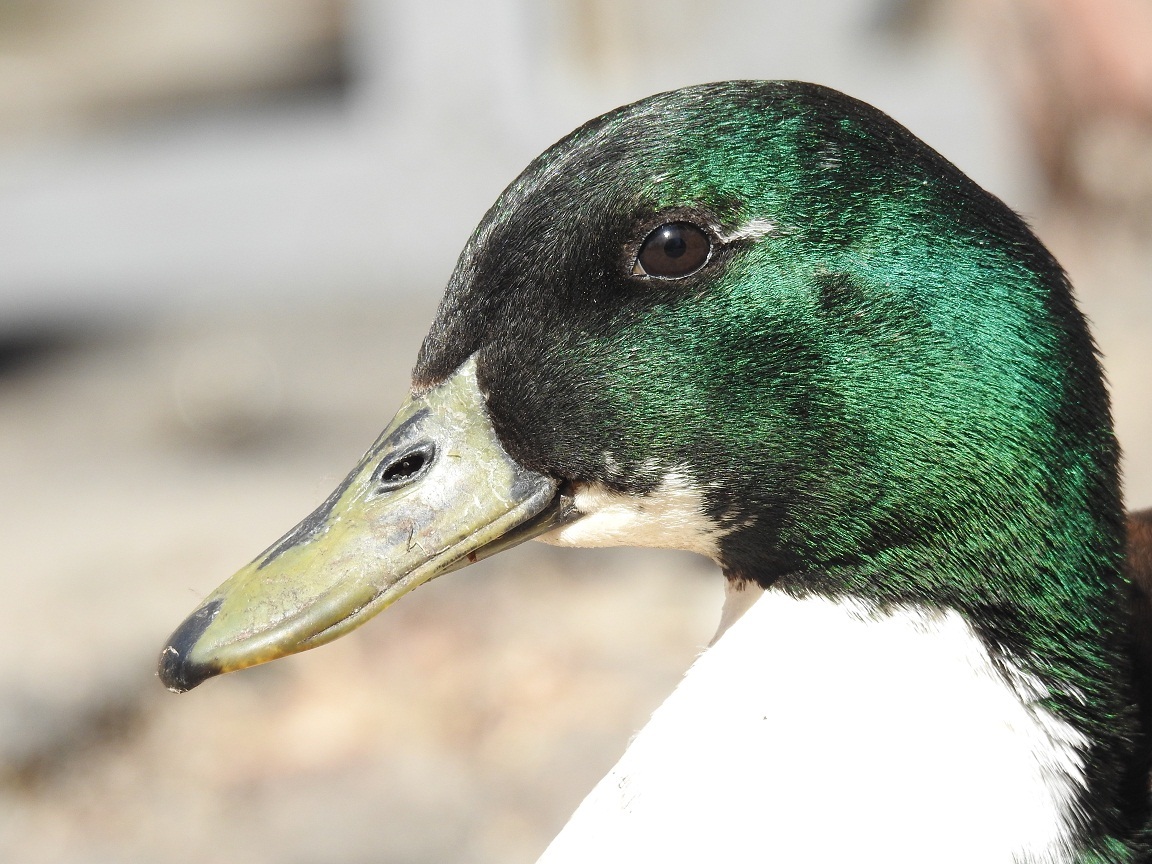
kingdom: Animalia
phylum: Chordata
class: Aves
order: Anseriformes
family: Anatidae
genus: Anas
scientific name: Anas platyrhynchos
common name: Mallard
